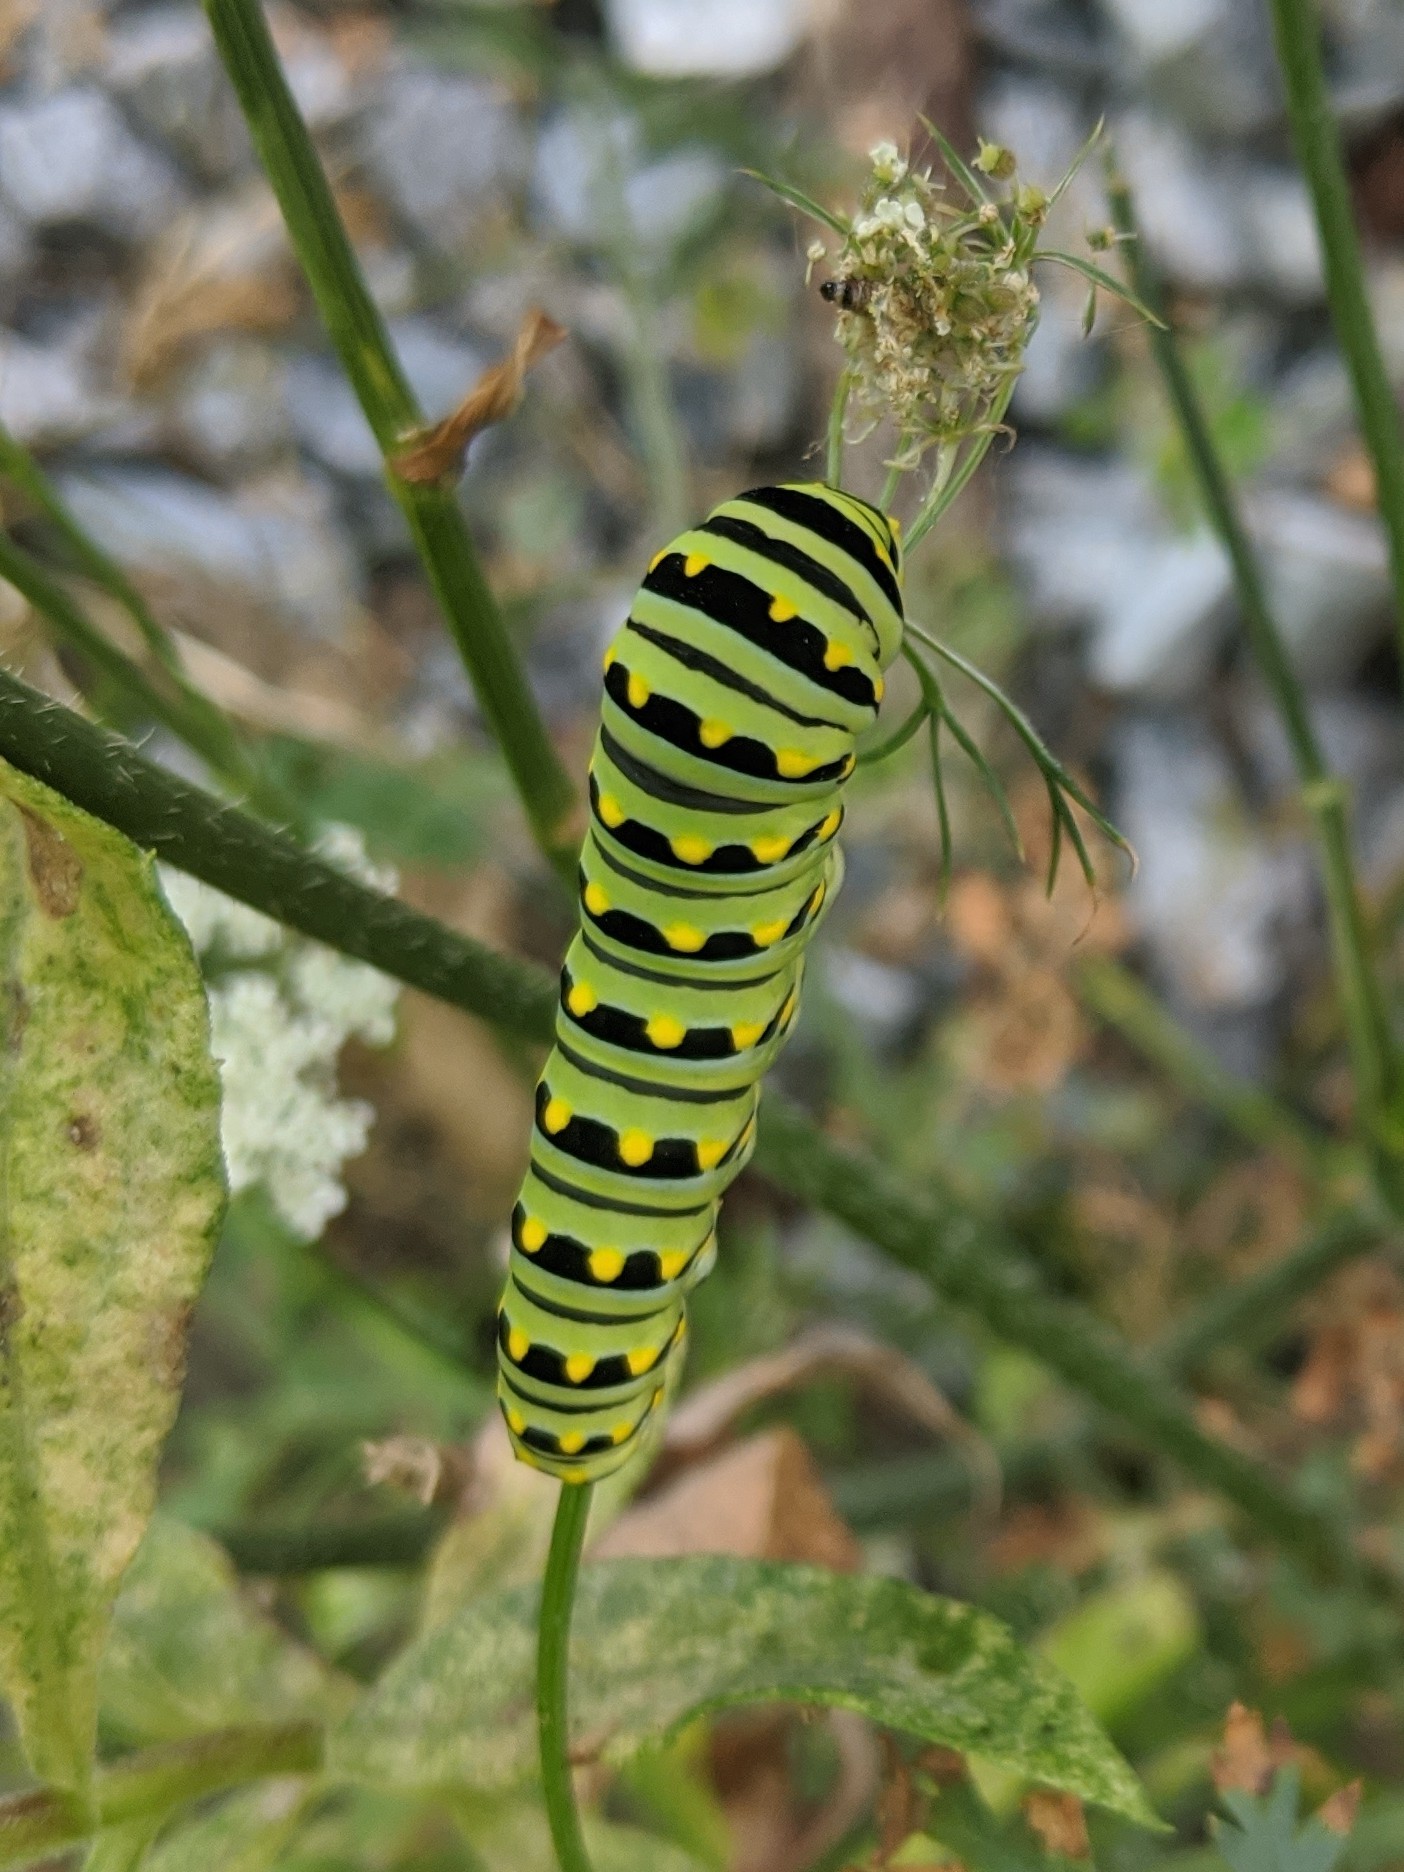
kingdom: Animalia
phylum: Arthropoda
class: Insecta
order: Lepidoptera
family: Papilionidae
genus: Papilio
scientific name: Papilio polyxenes
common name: Black swallowtail
